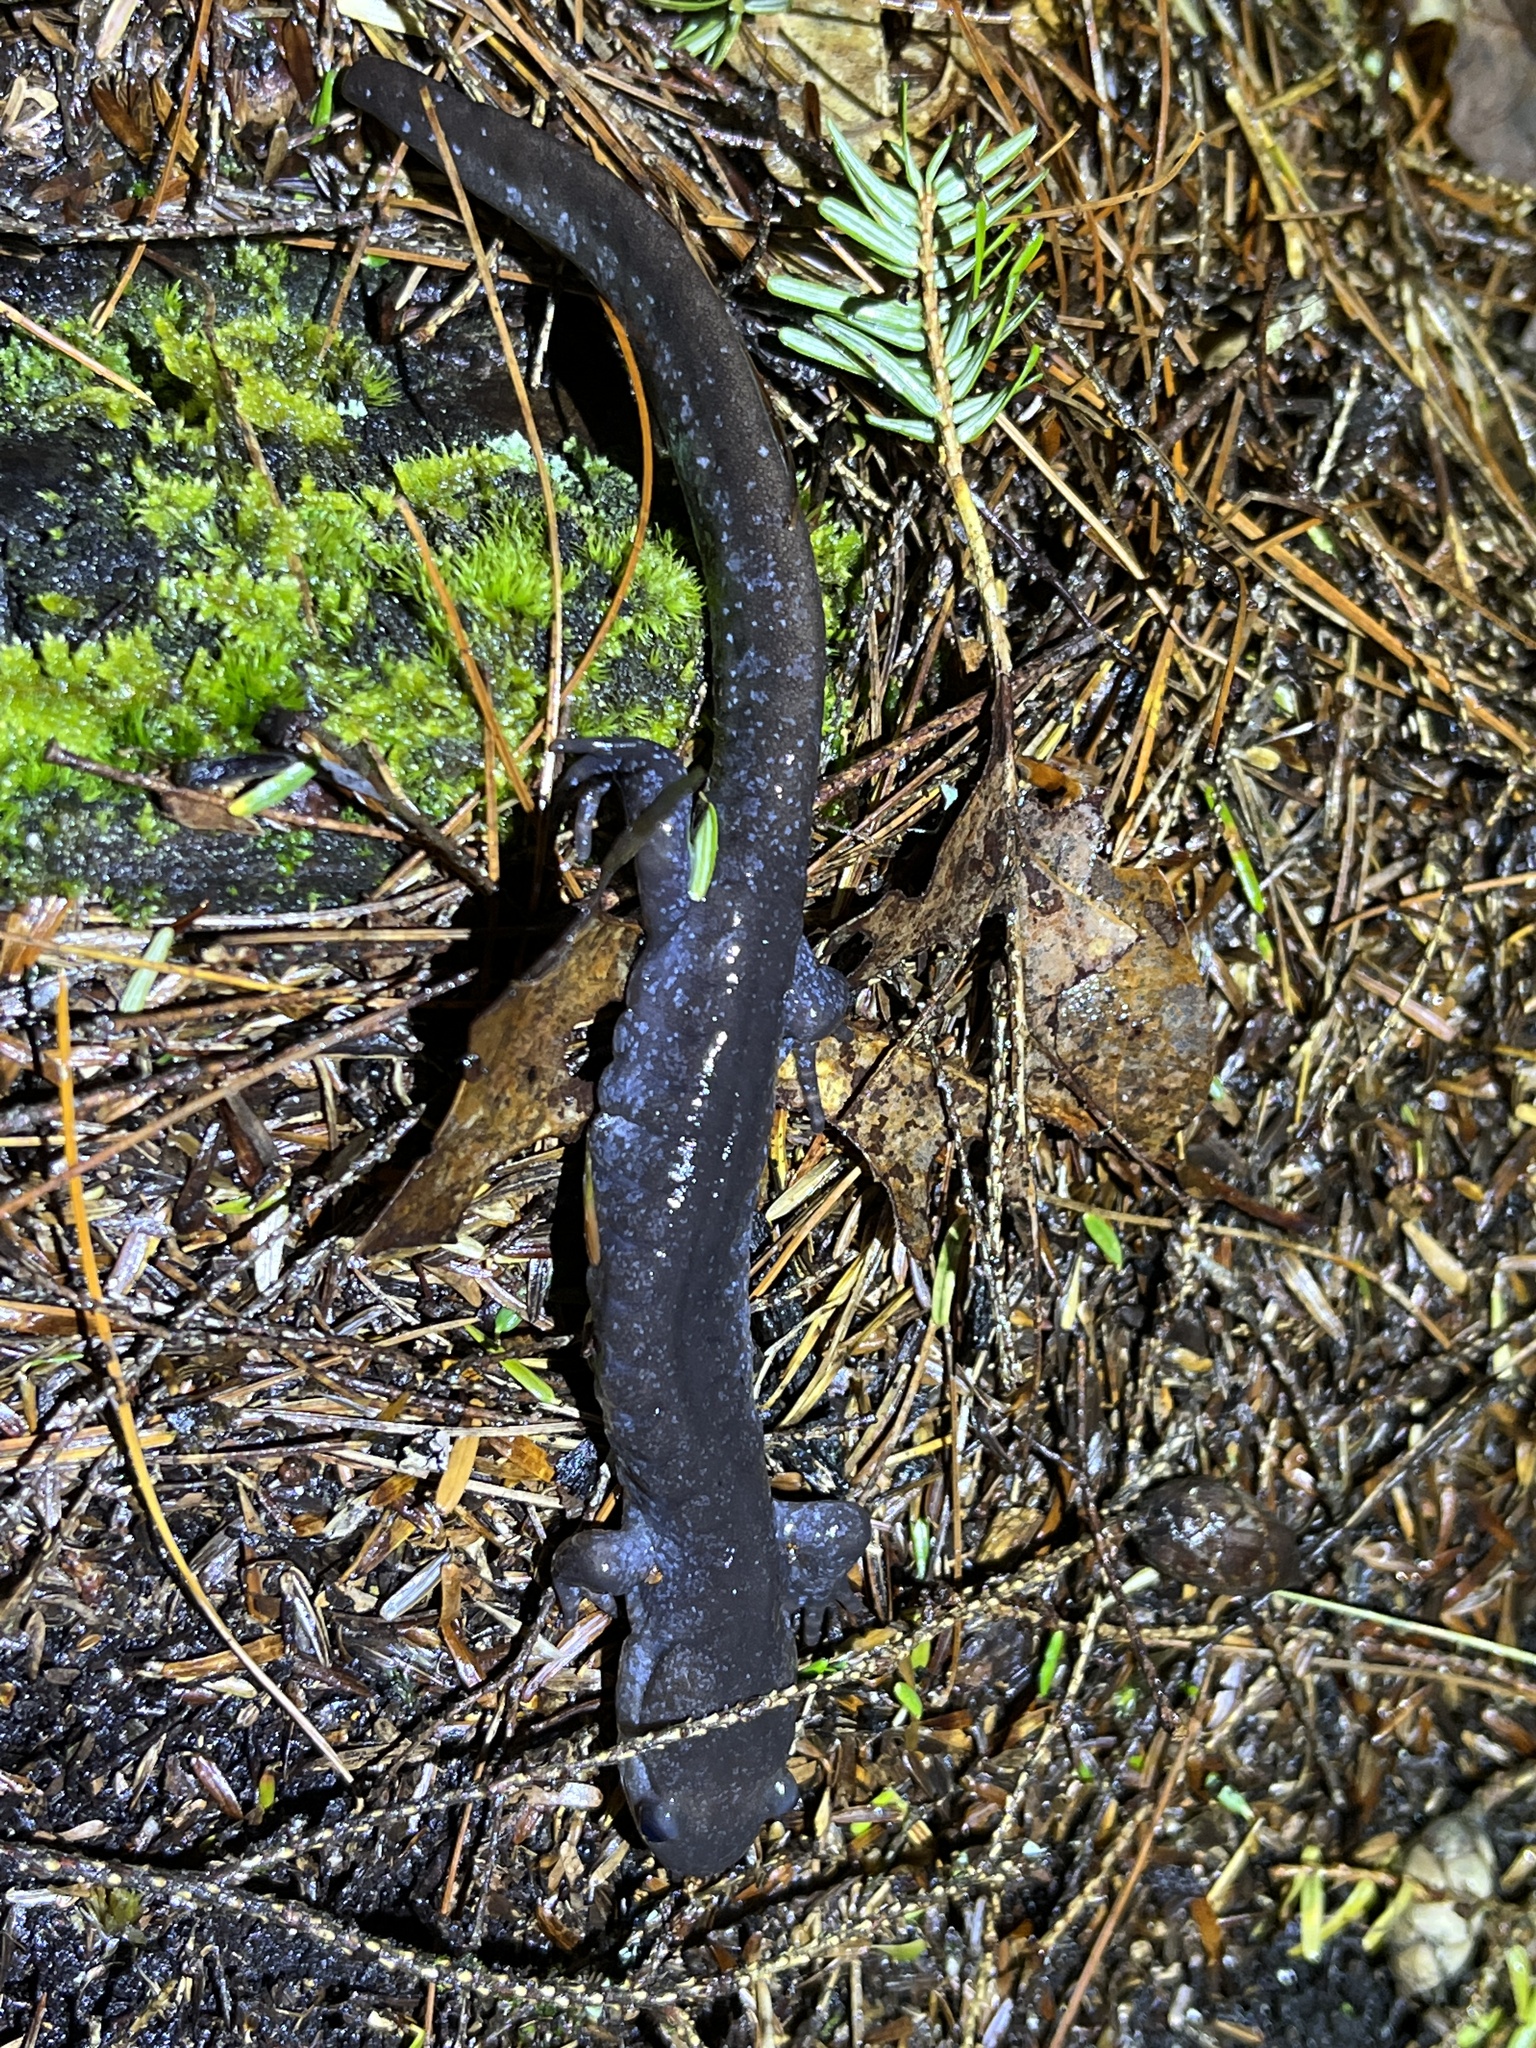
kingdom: Animalia
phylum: Chordata
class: Amphibia
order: Caudata
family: Ambystomatidae
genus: Ambystoma
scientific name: Ambystoma jeffersonianum
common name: Jefferson salamander
